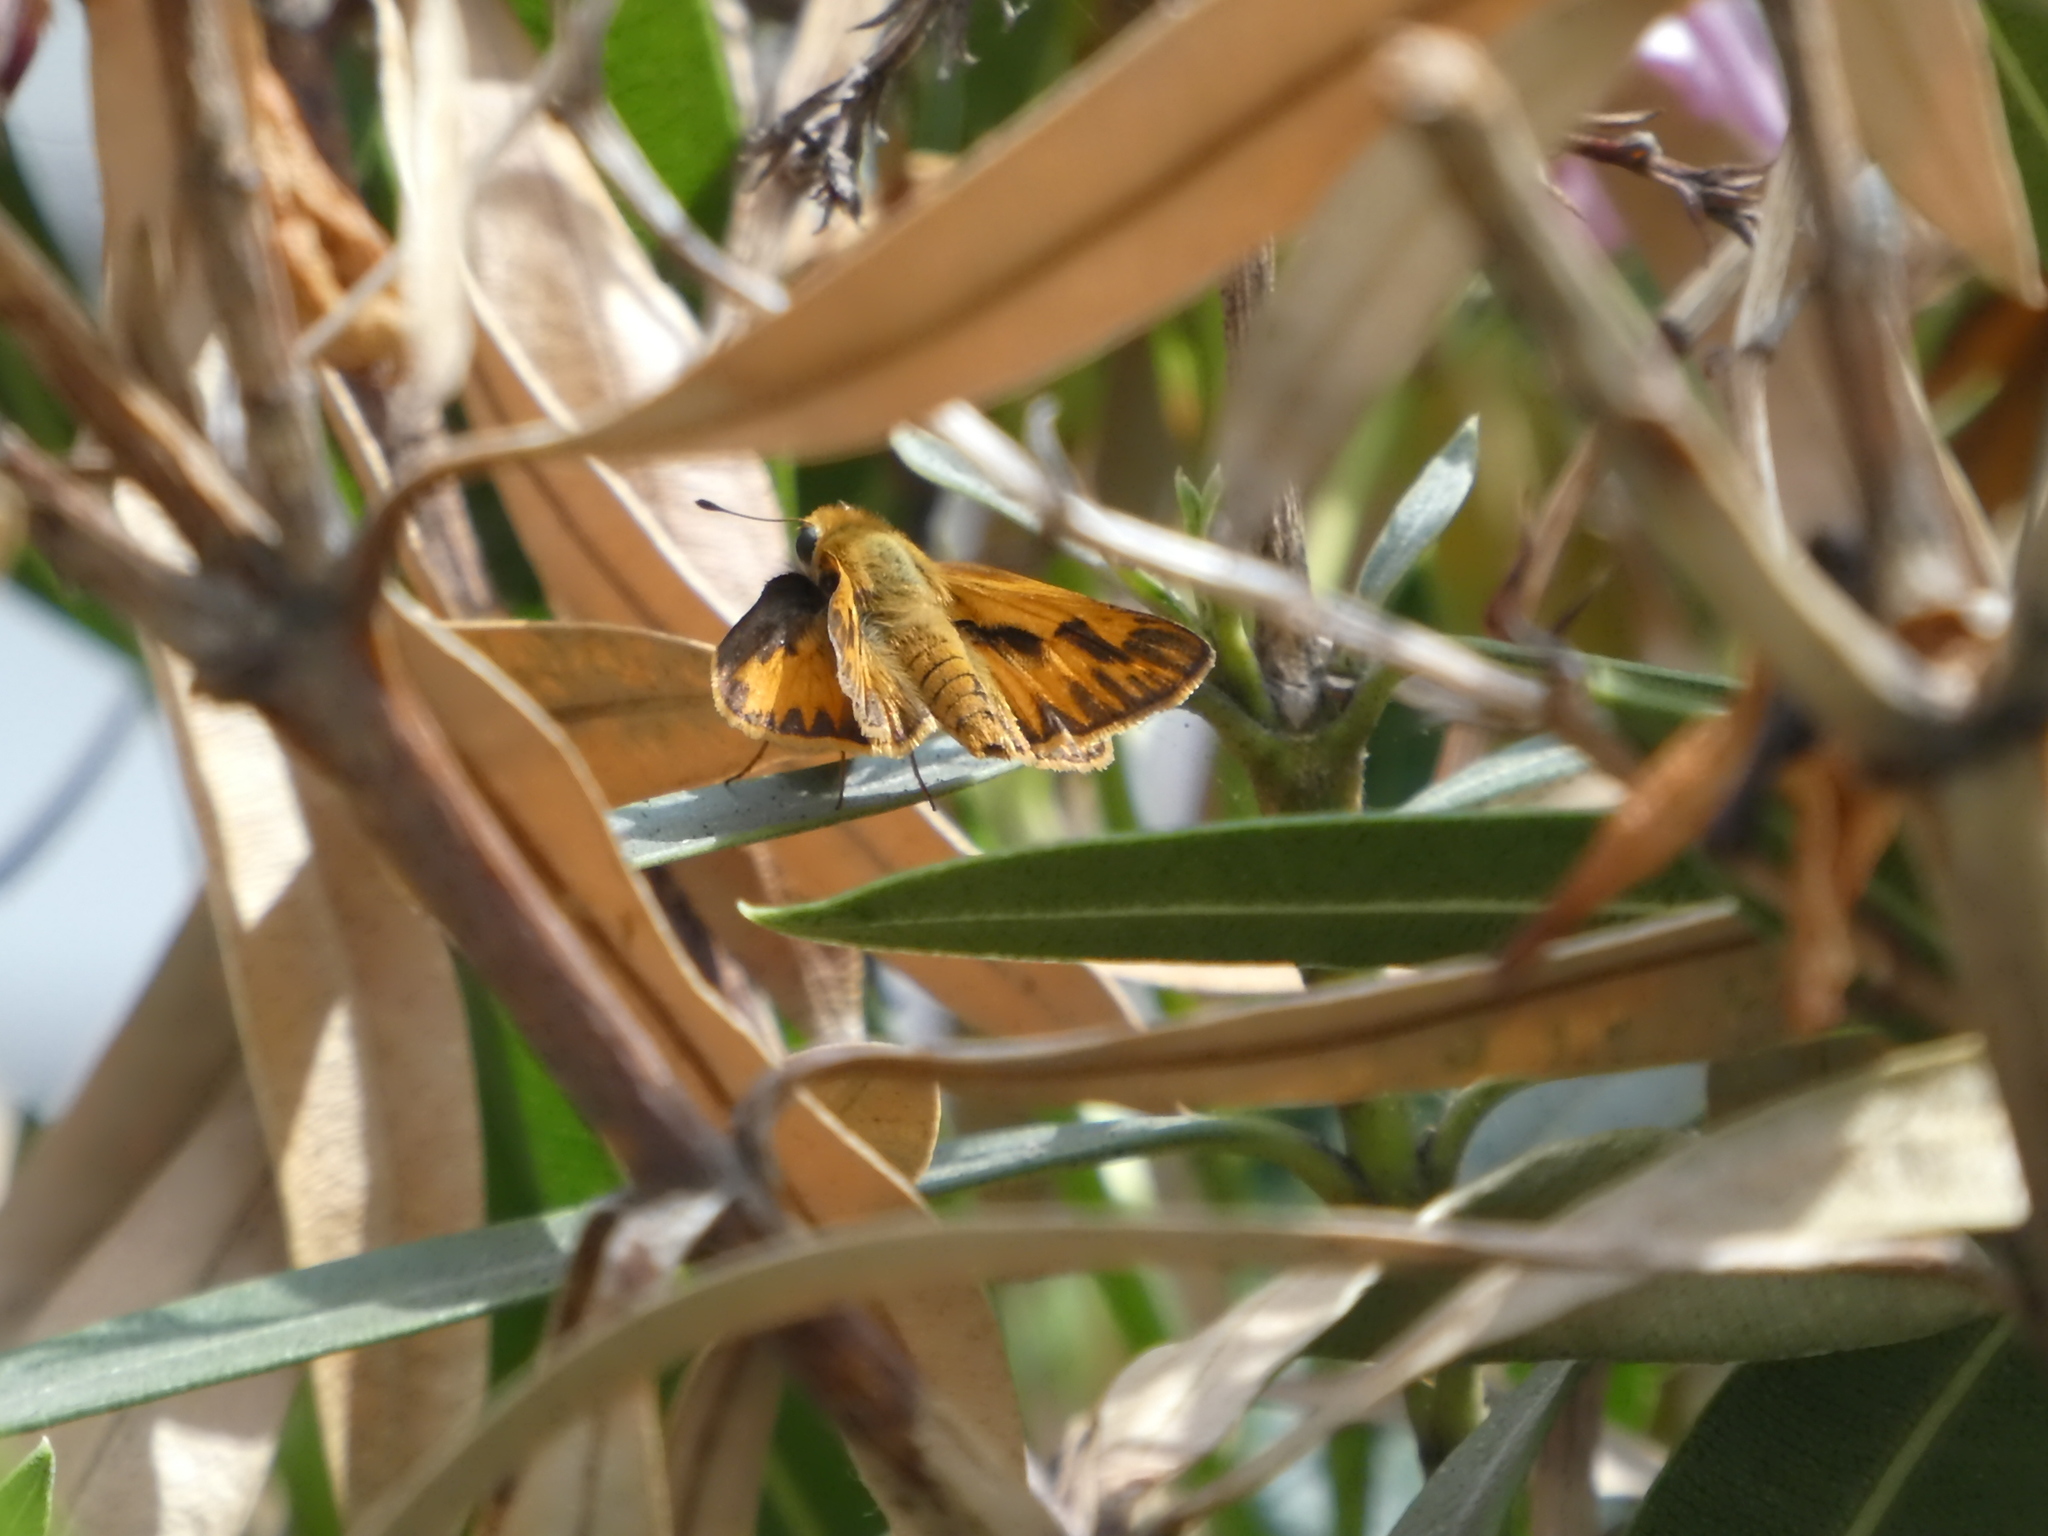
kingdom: Animalia
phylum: Arthropoda
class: Insecta
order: Lepidoptera
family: Hesperiidae
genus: Hylephila
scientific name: Hylephila phyleus
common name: Fiery skipper
